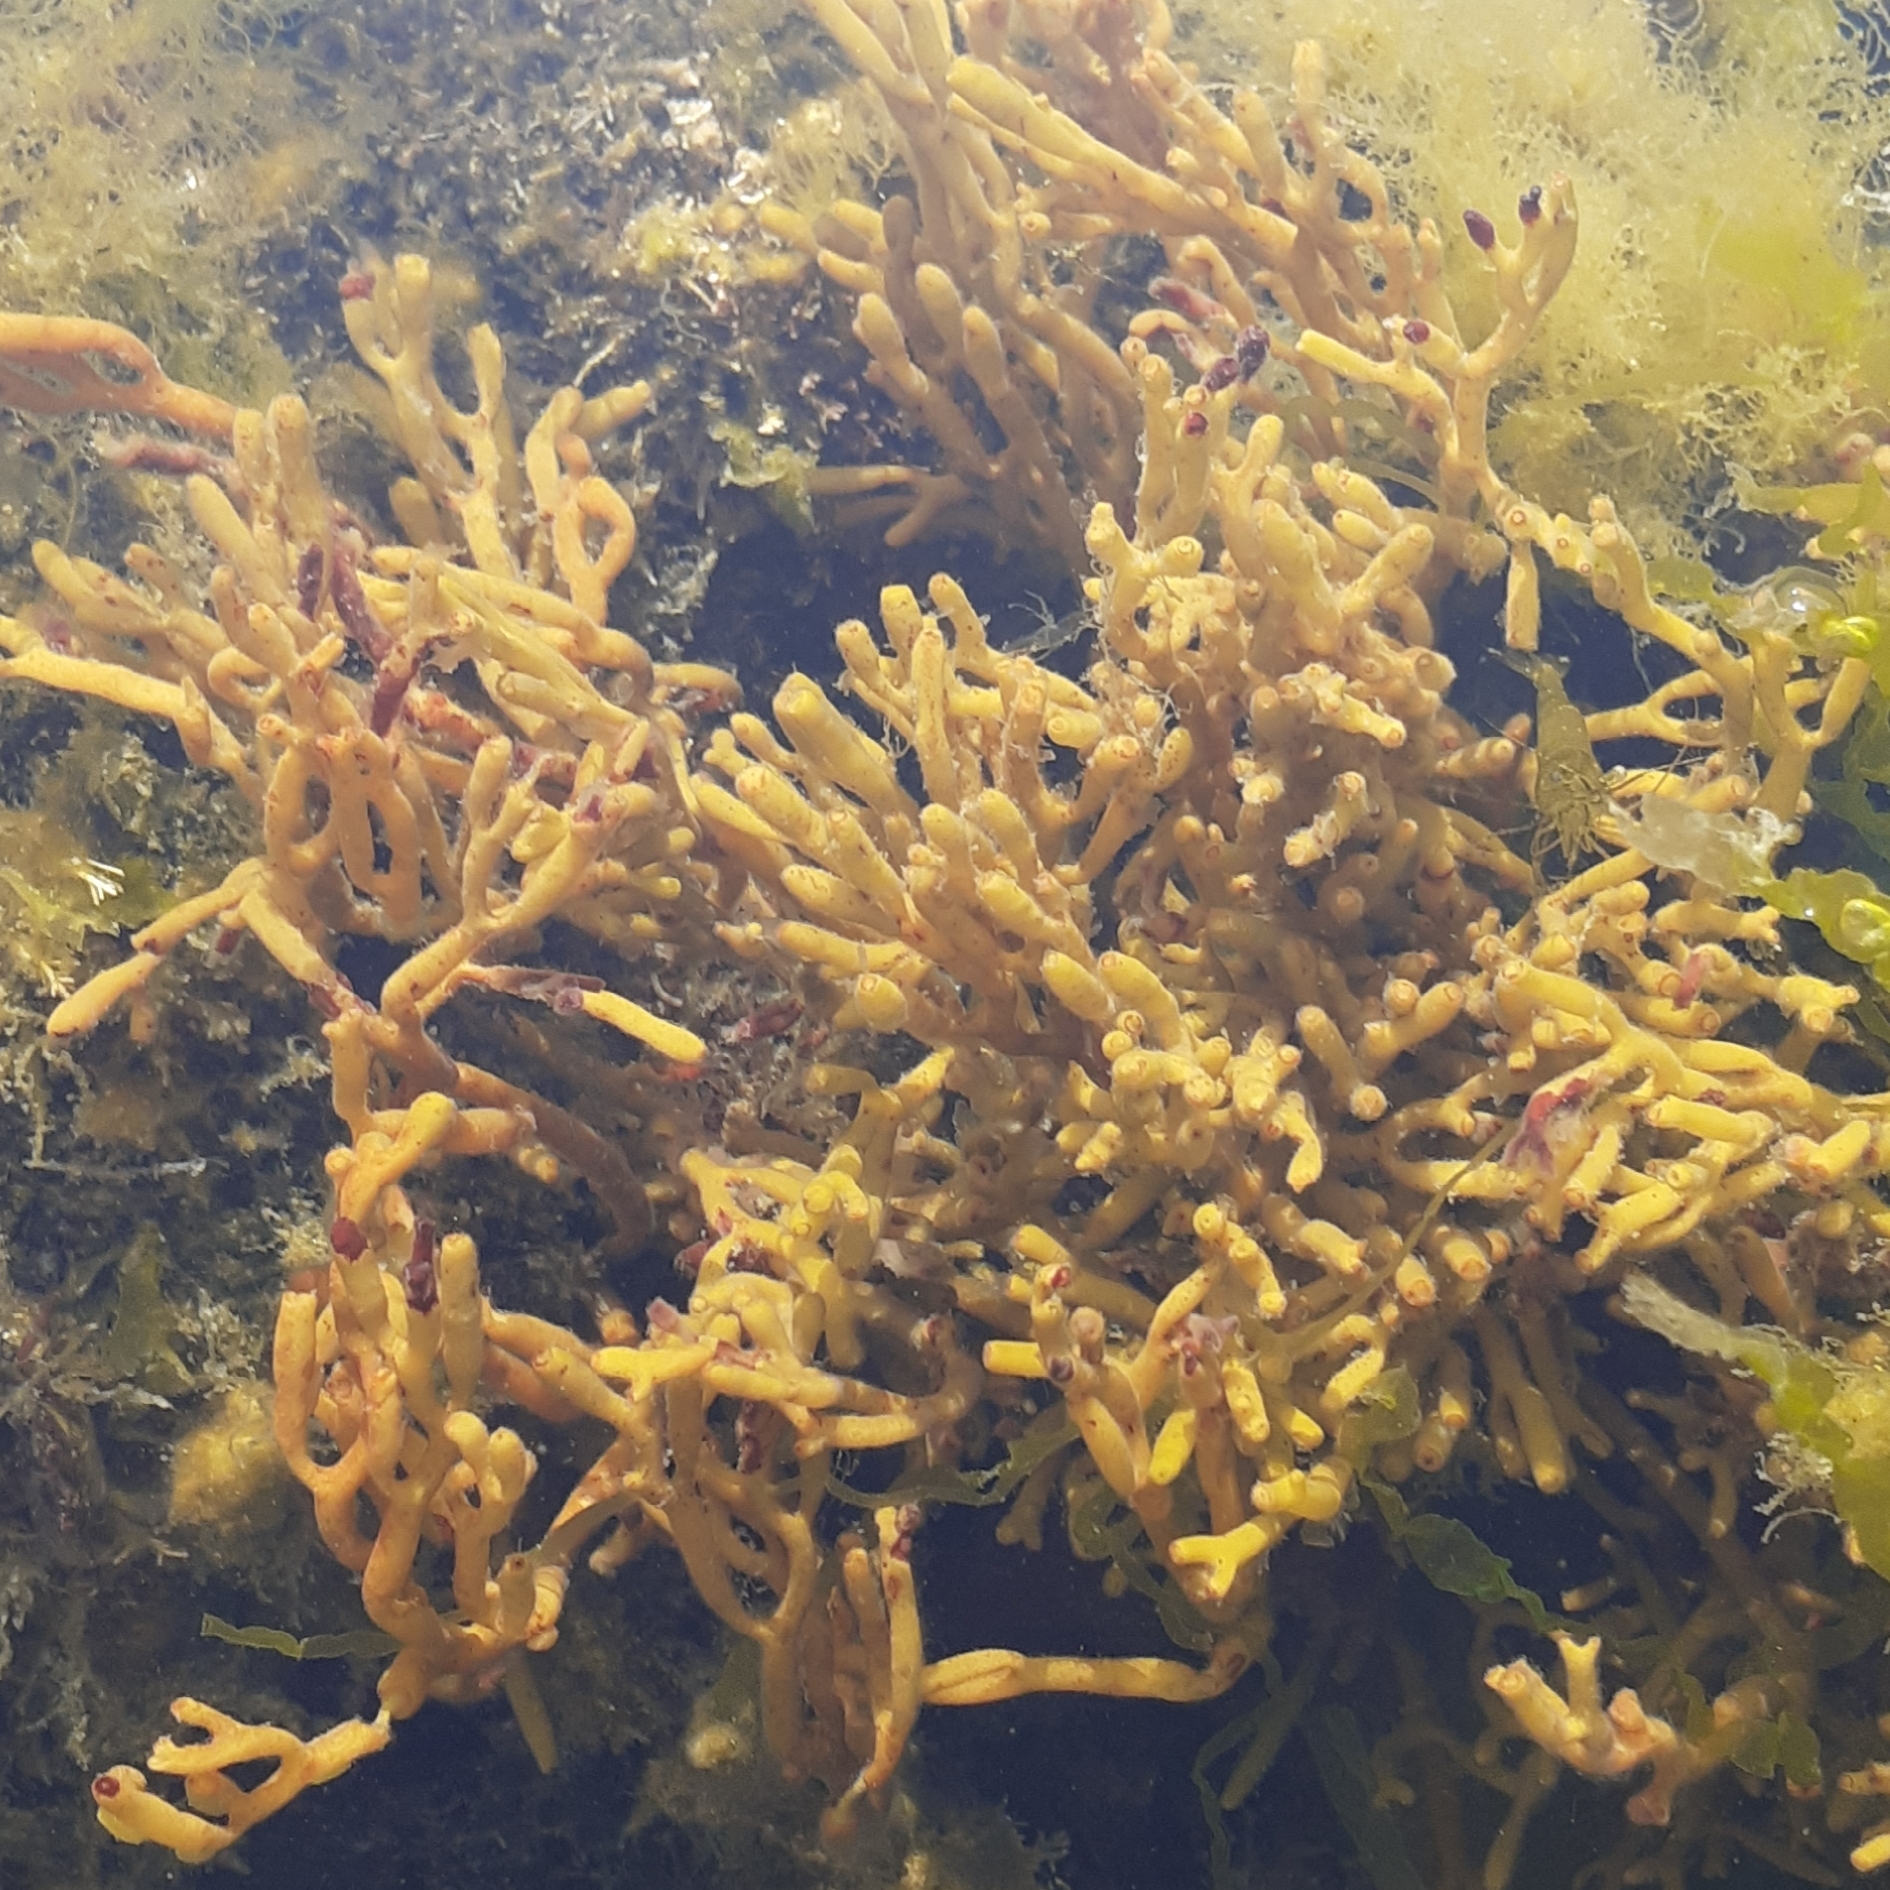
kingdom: Chromista
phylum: Ochrophyta
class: Phaeophyceae
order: Fucales
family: Sargassaceae
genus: Bifurcaria
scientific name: Bifurcaria bifurcata
